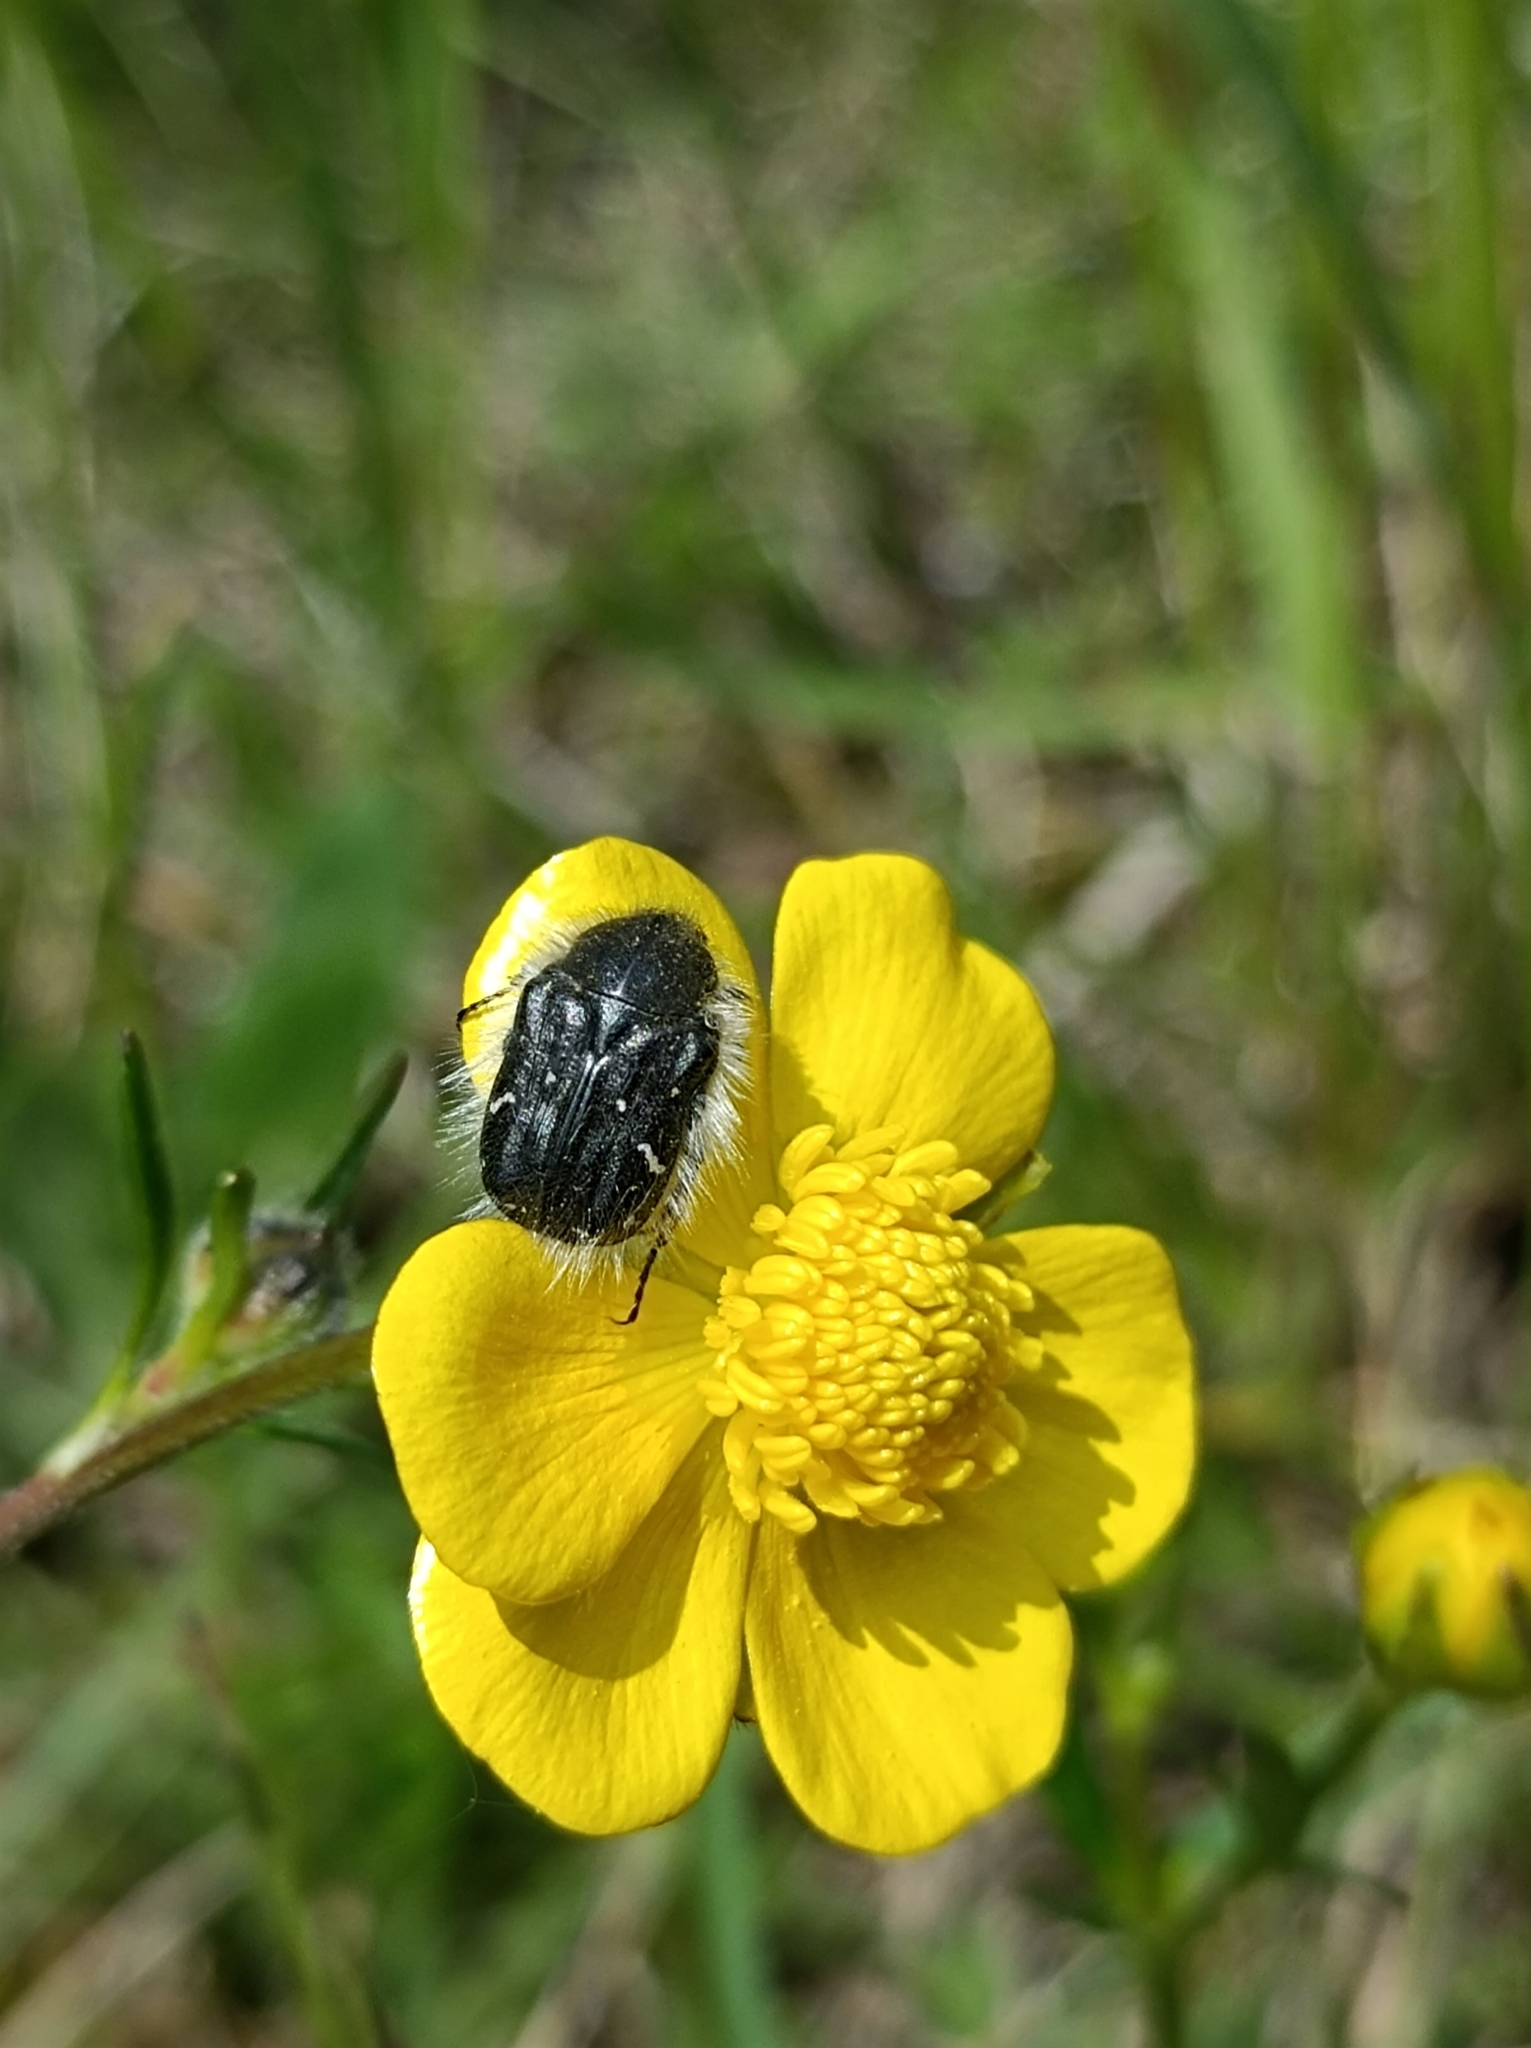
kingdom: Animalia
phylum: Arthropoda
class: Insecta
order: Coleoptera
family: Scarabaeidae
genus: Tropinota
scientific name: Tropinota hirta
